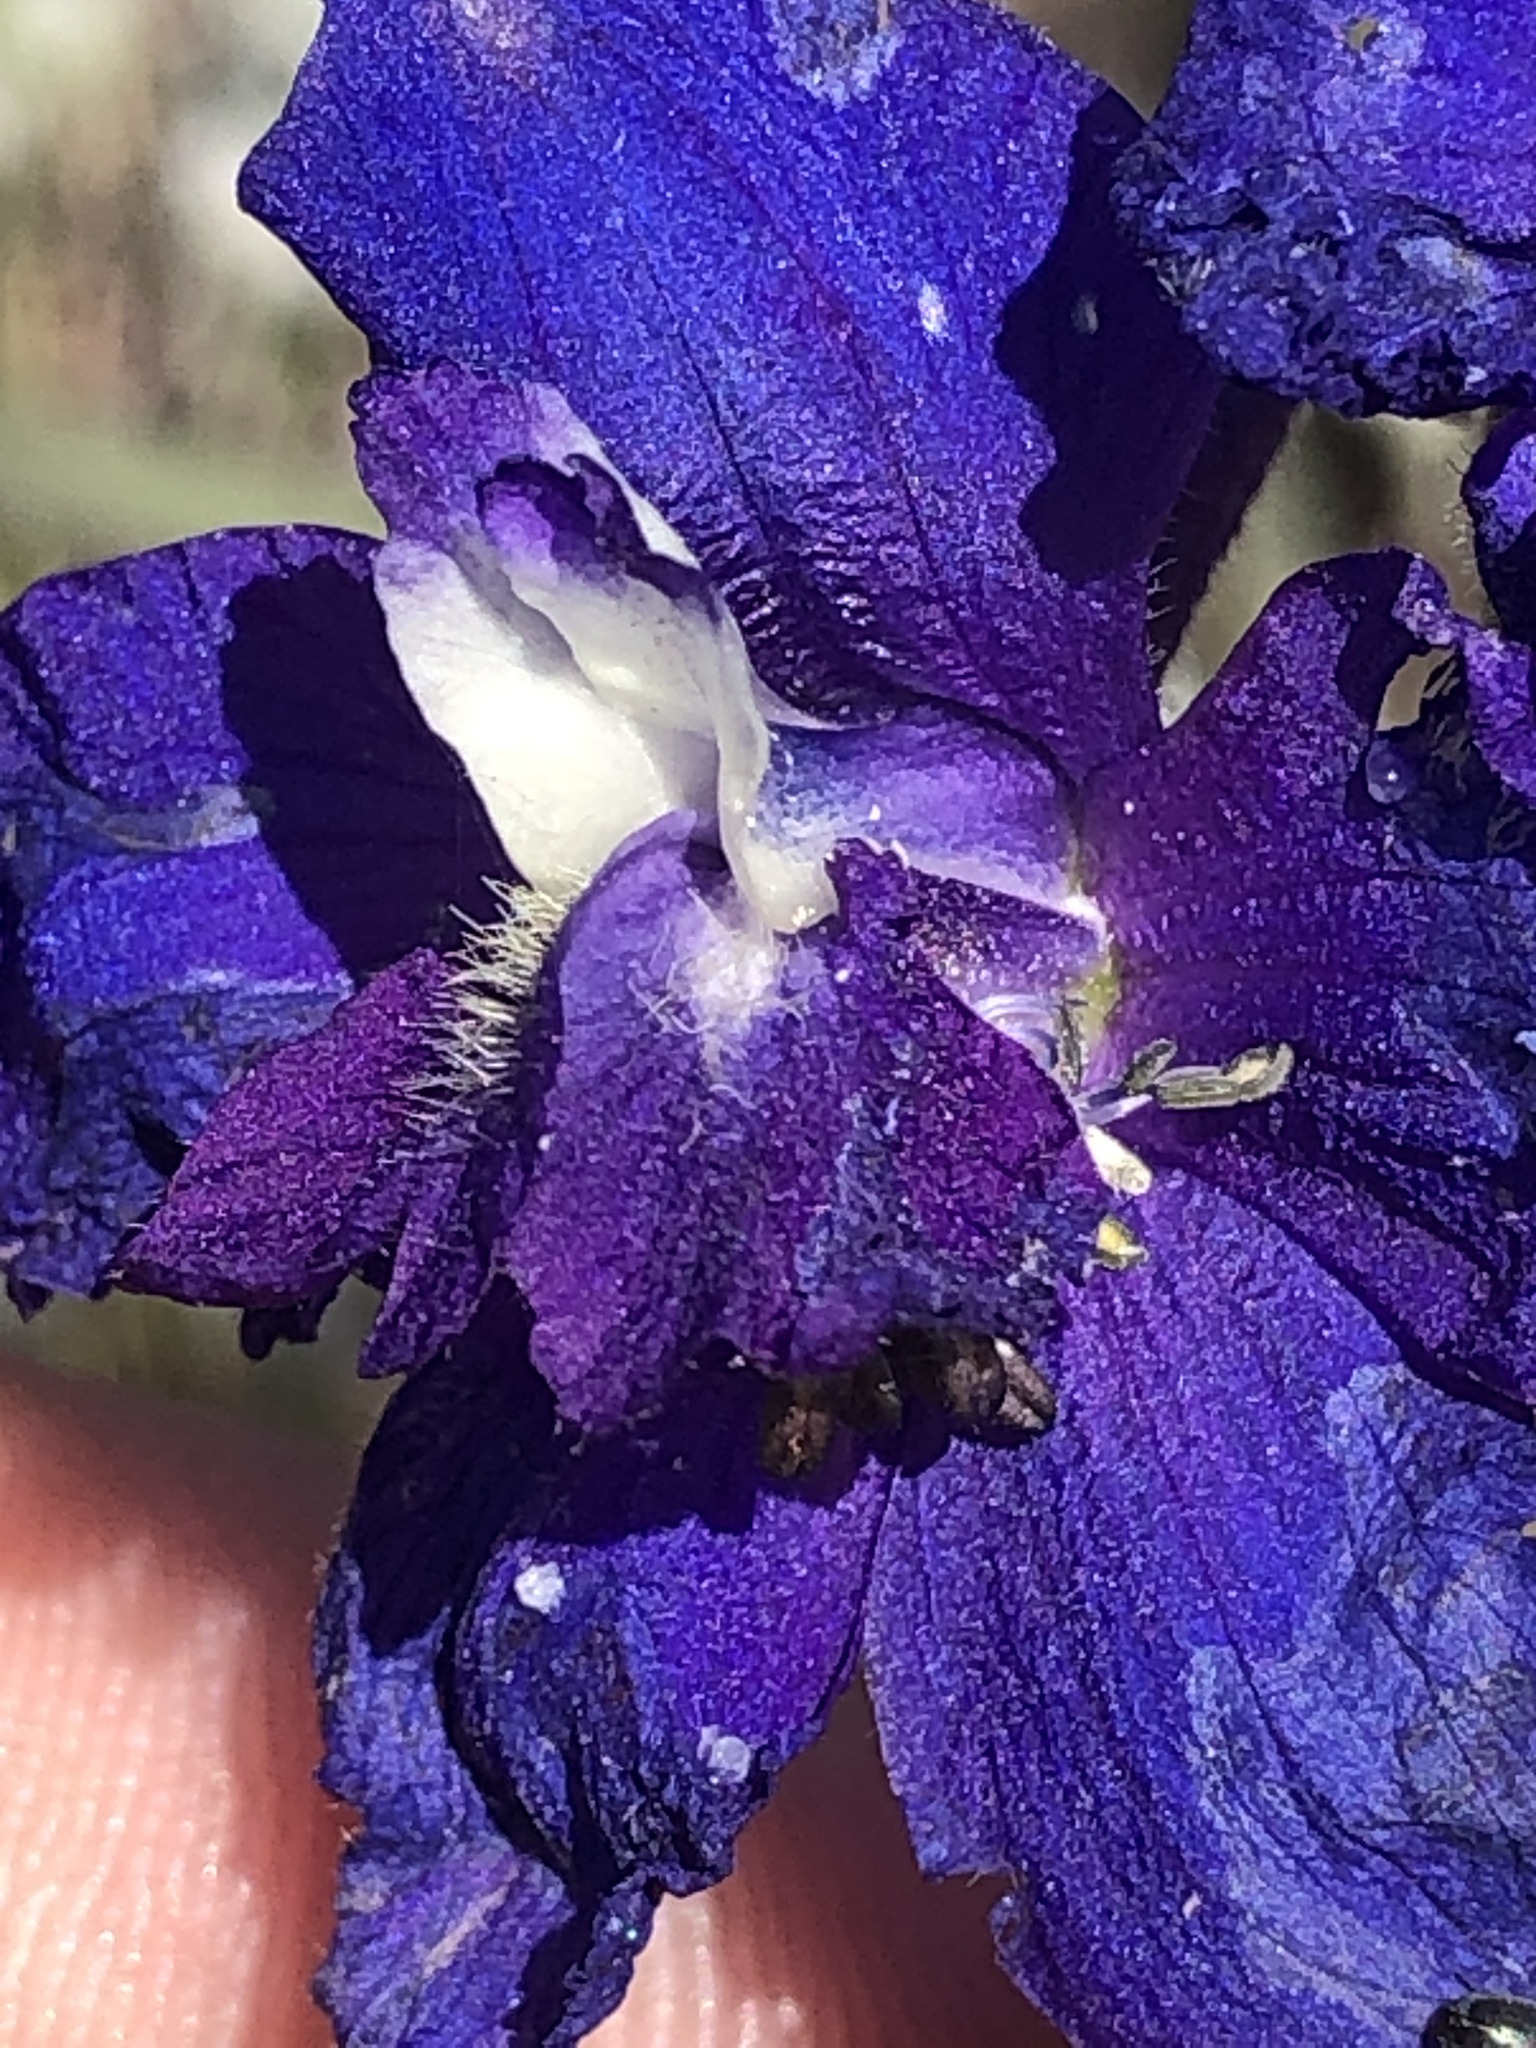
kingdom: Plantae
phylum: Tracheophyta
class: Magnoliopsida
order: Ranunculales
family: Ranunculaceae
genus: Delphinium
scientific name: Delphinium variegatum
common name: Royal larkspur
